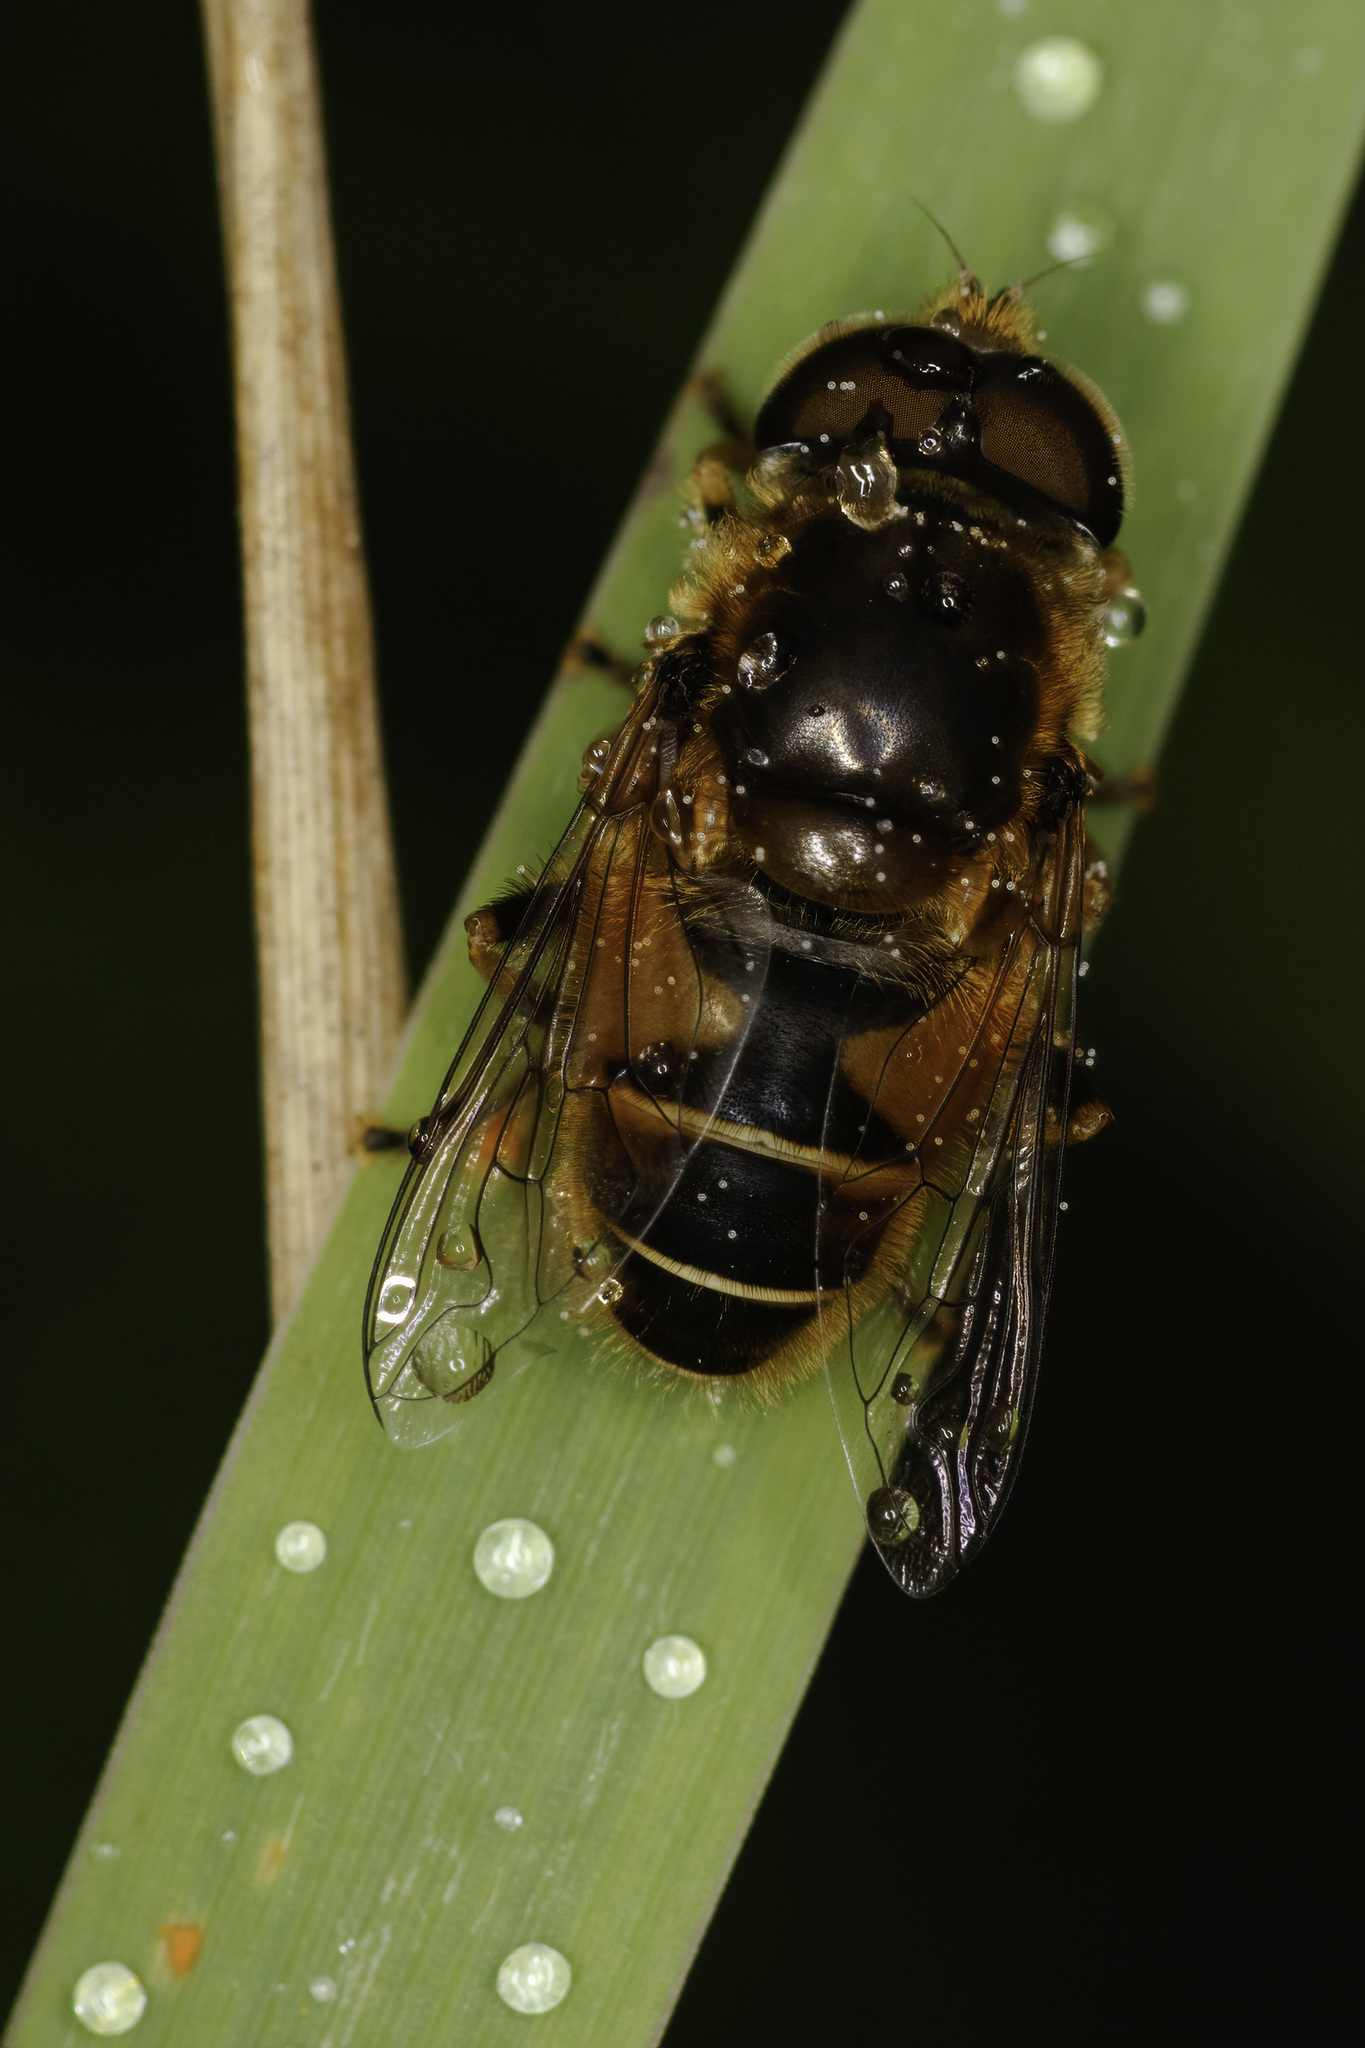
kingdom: Animalia
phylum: Arthropoda
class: Insecta
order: Diptera
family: Syrphidae
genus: Eristalis
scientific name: Eristalis nemorum
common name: Orange-spined drone fly
